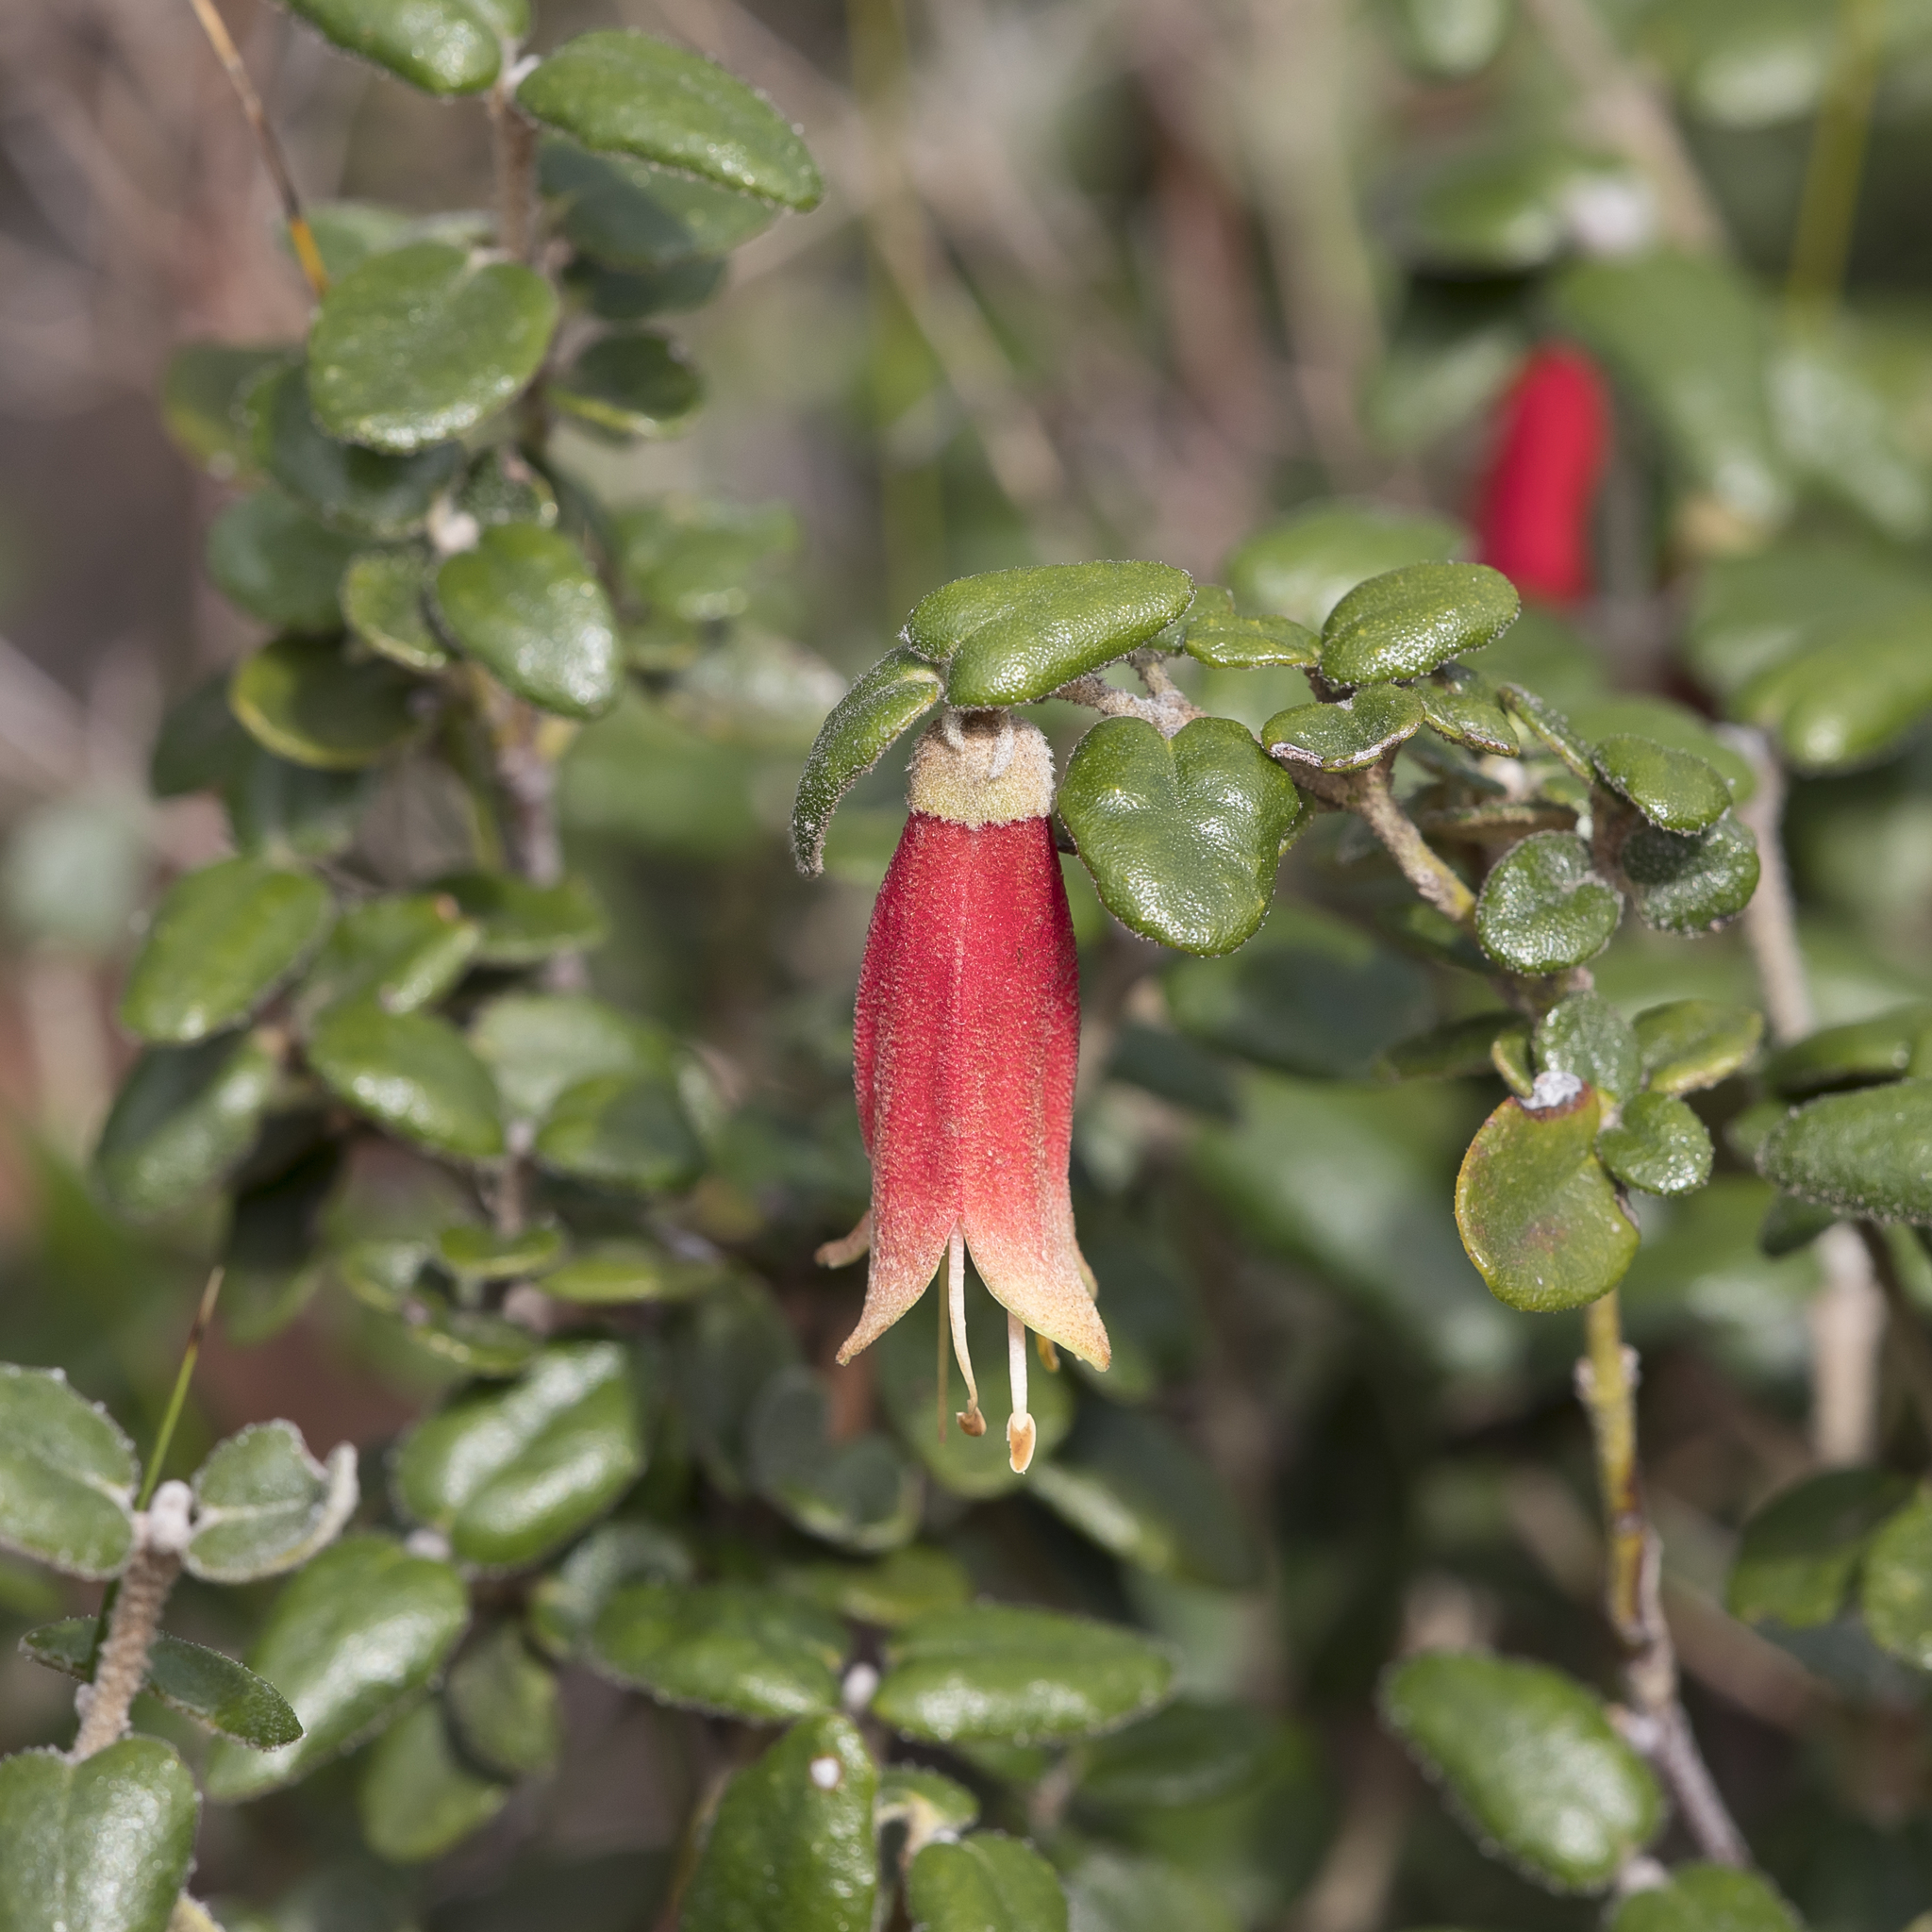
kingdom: Plantae
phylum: Tracheophyta
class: Magnoliopsida
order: Sapindales
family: Rutaceae
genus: Correa
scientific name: Correa reflexa
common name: Common correa
